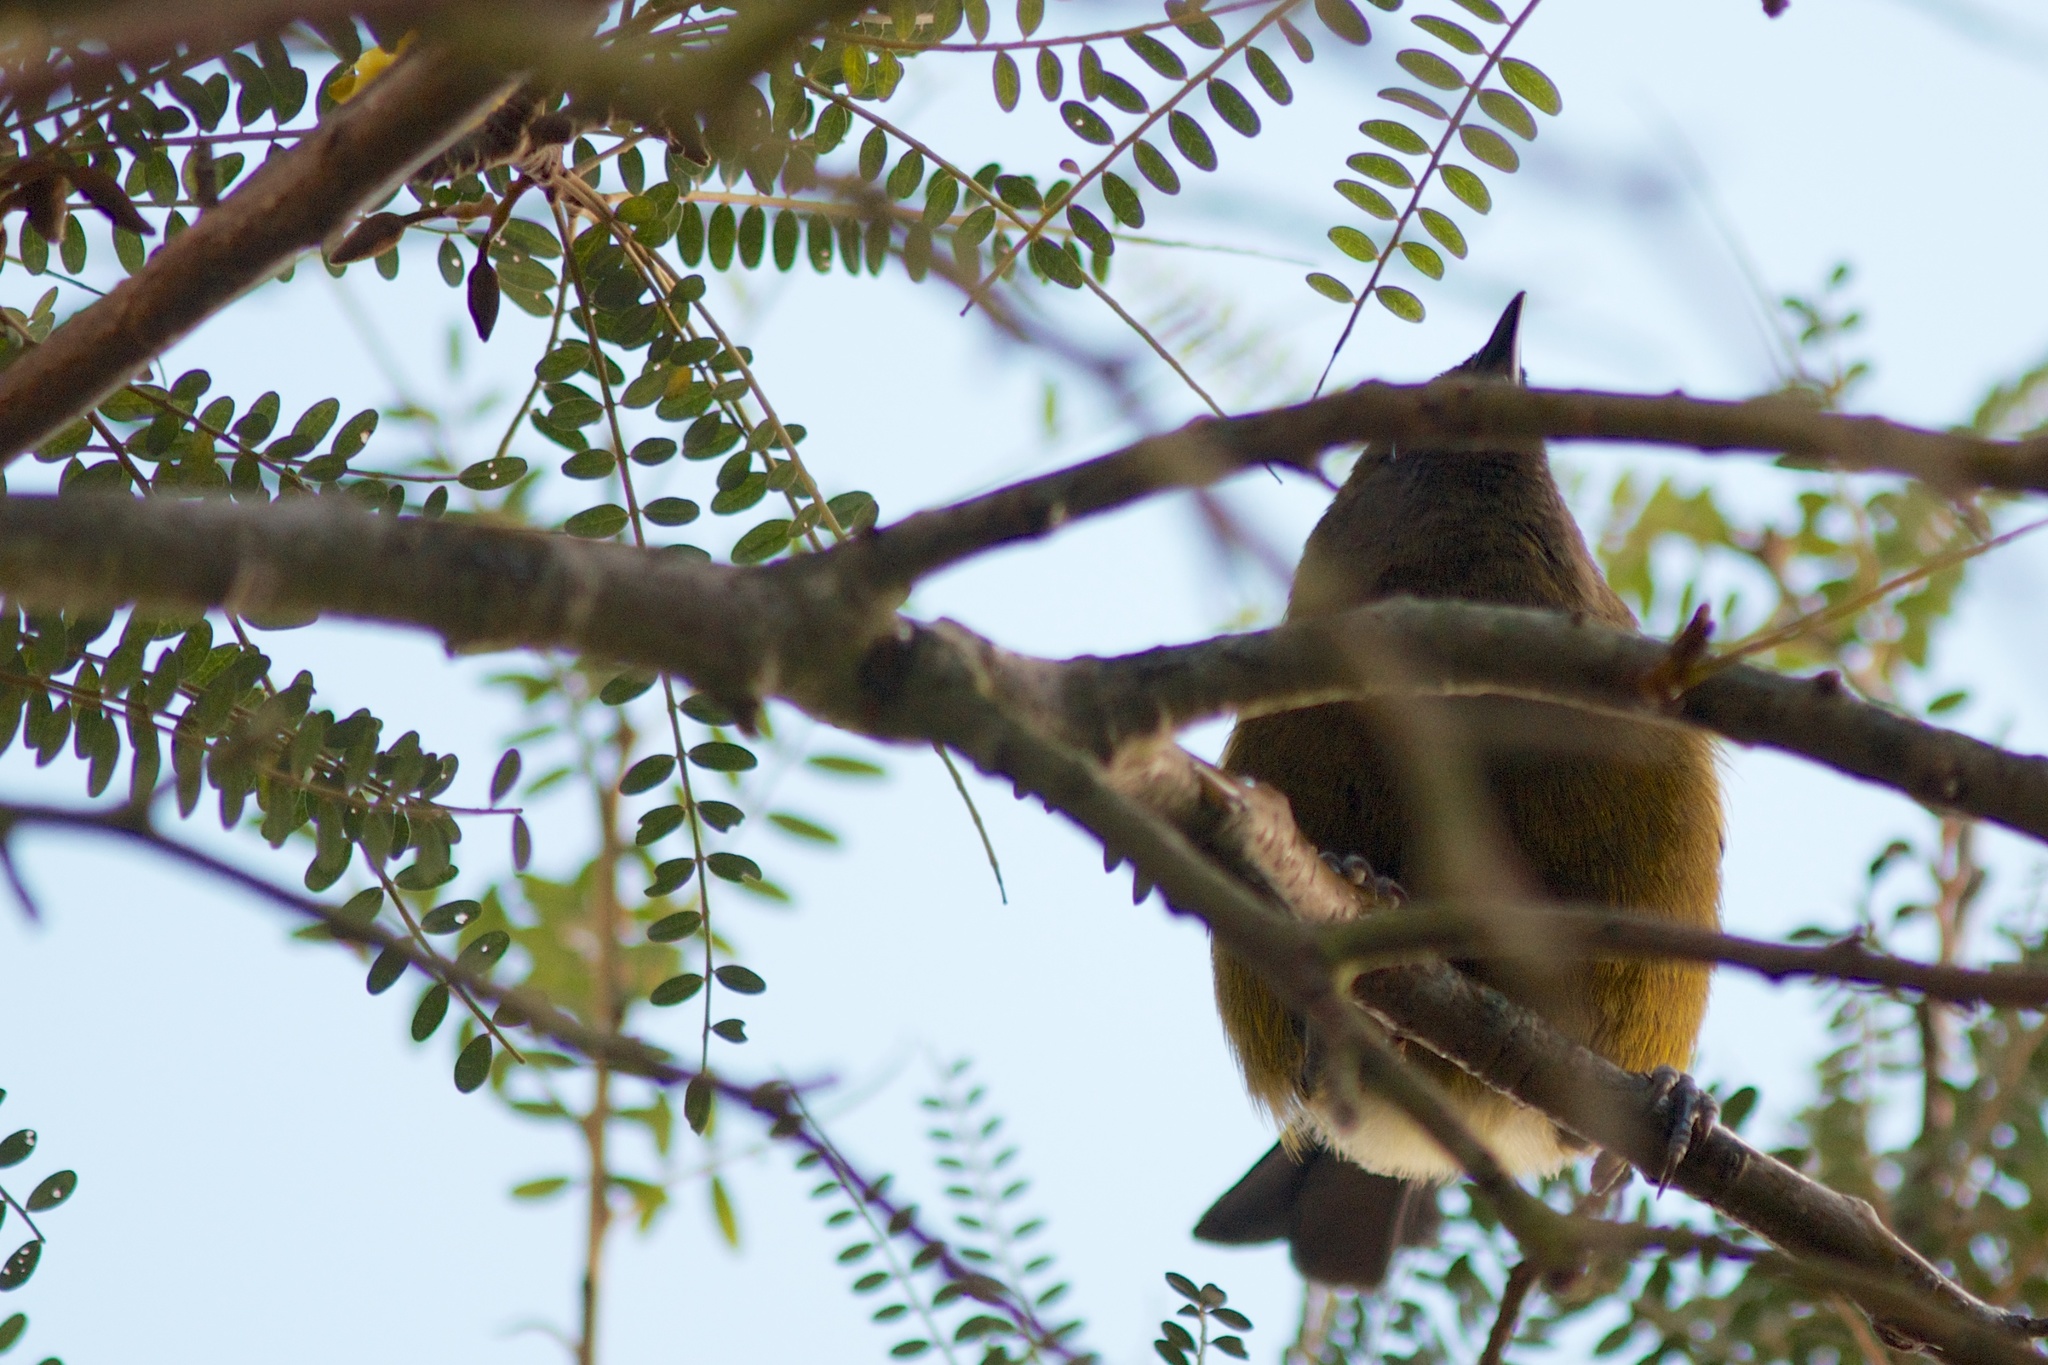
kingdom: Animalia
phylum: Chordata
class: Aves
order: Passeriformes
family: Meliphagidae
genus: Anthornis
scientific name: Anthornis melanura
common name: New zealand bellbird
